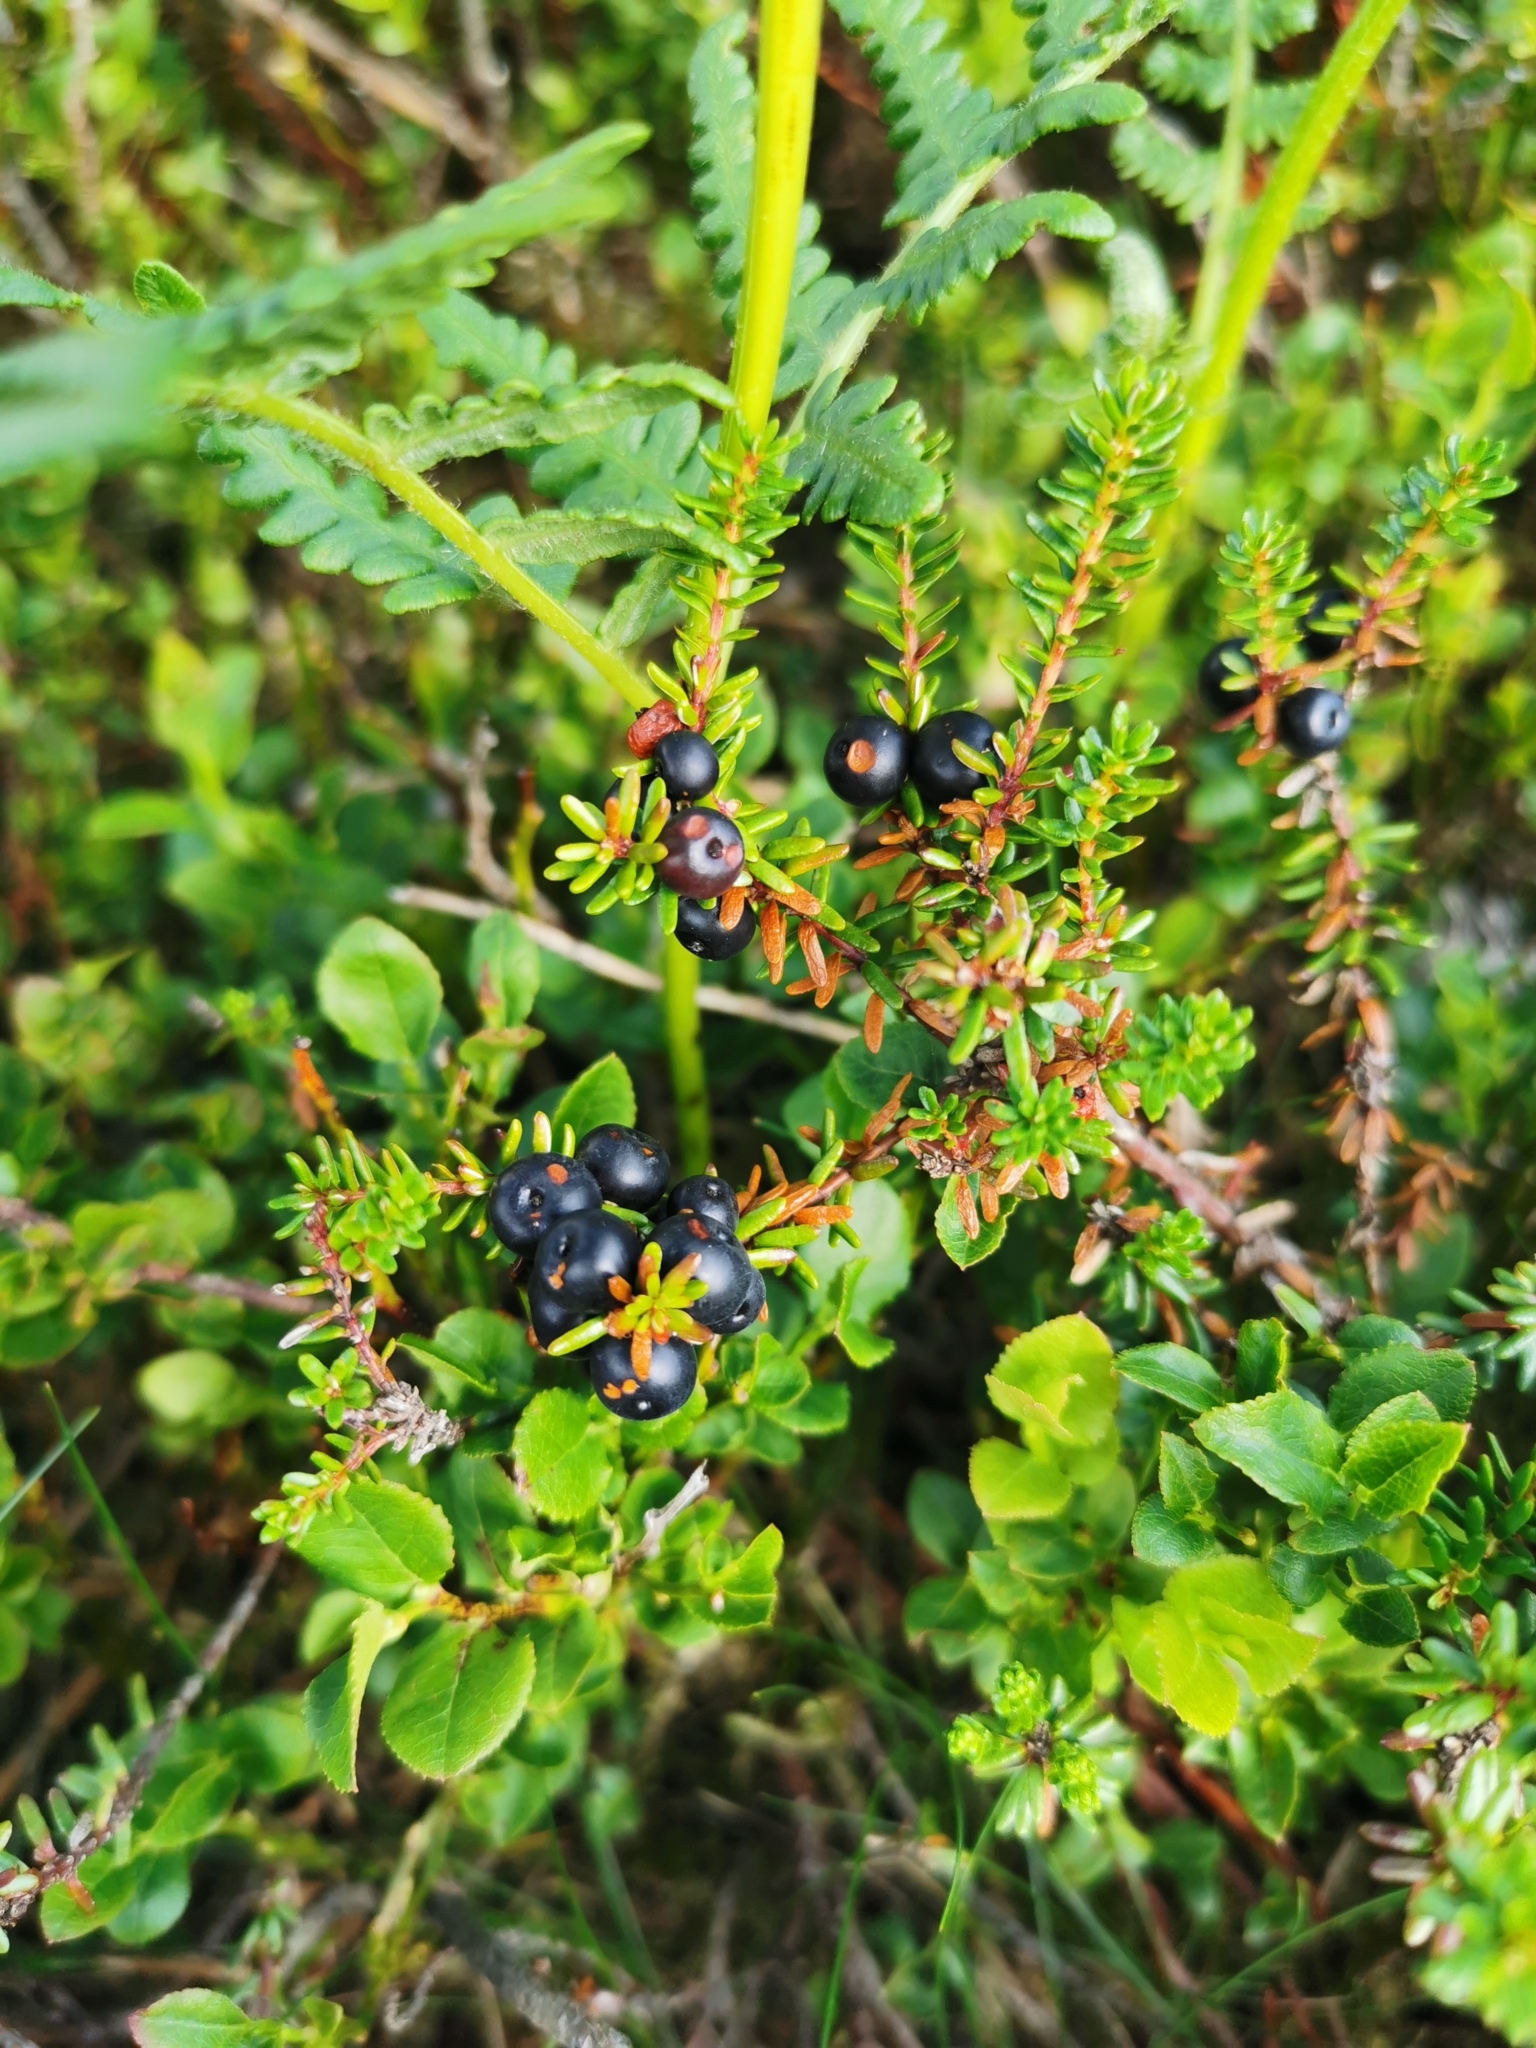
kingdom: Plantae
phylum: Tracheophyta
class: Magnoliopsida
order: Ericales
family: Ericaceae
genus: Empetrum
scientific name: Empetrum nigrum
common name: Black crowberry
